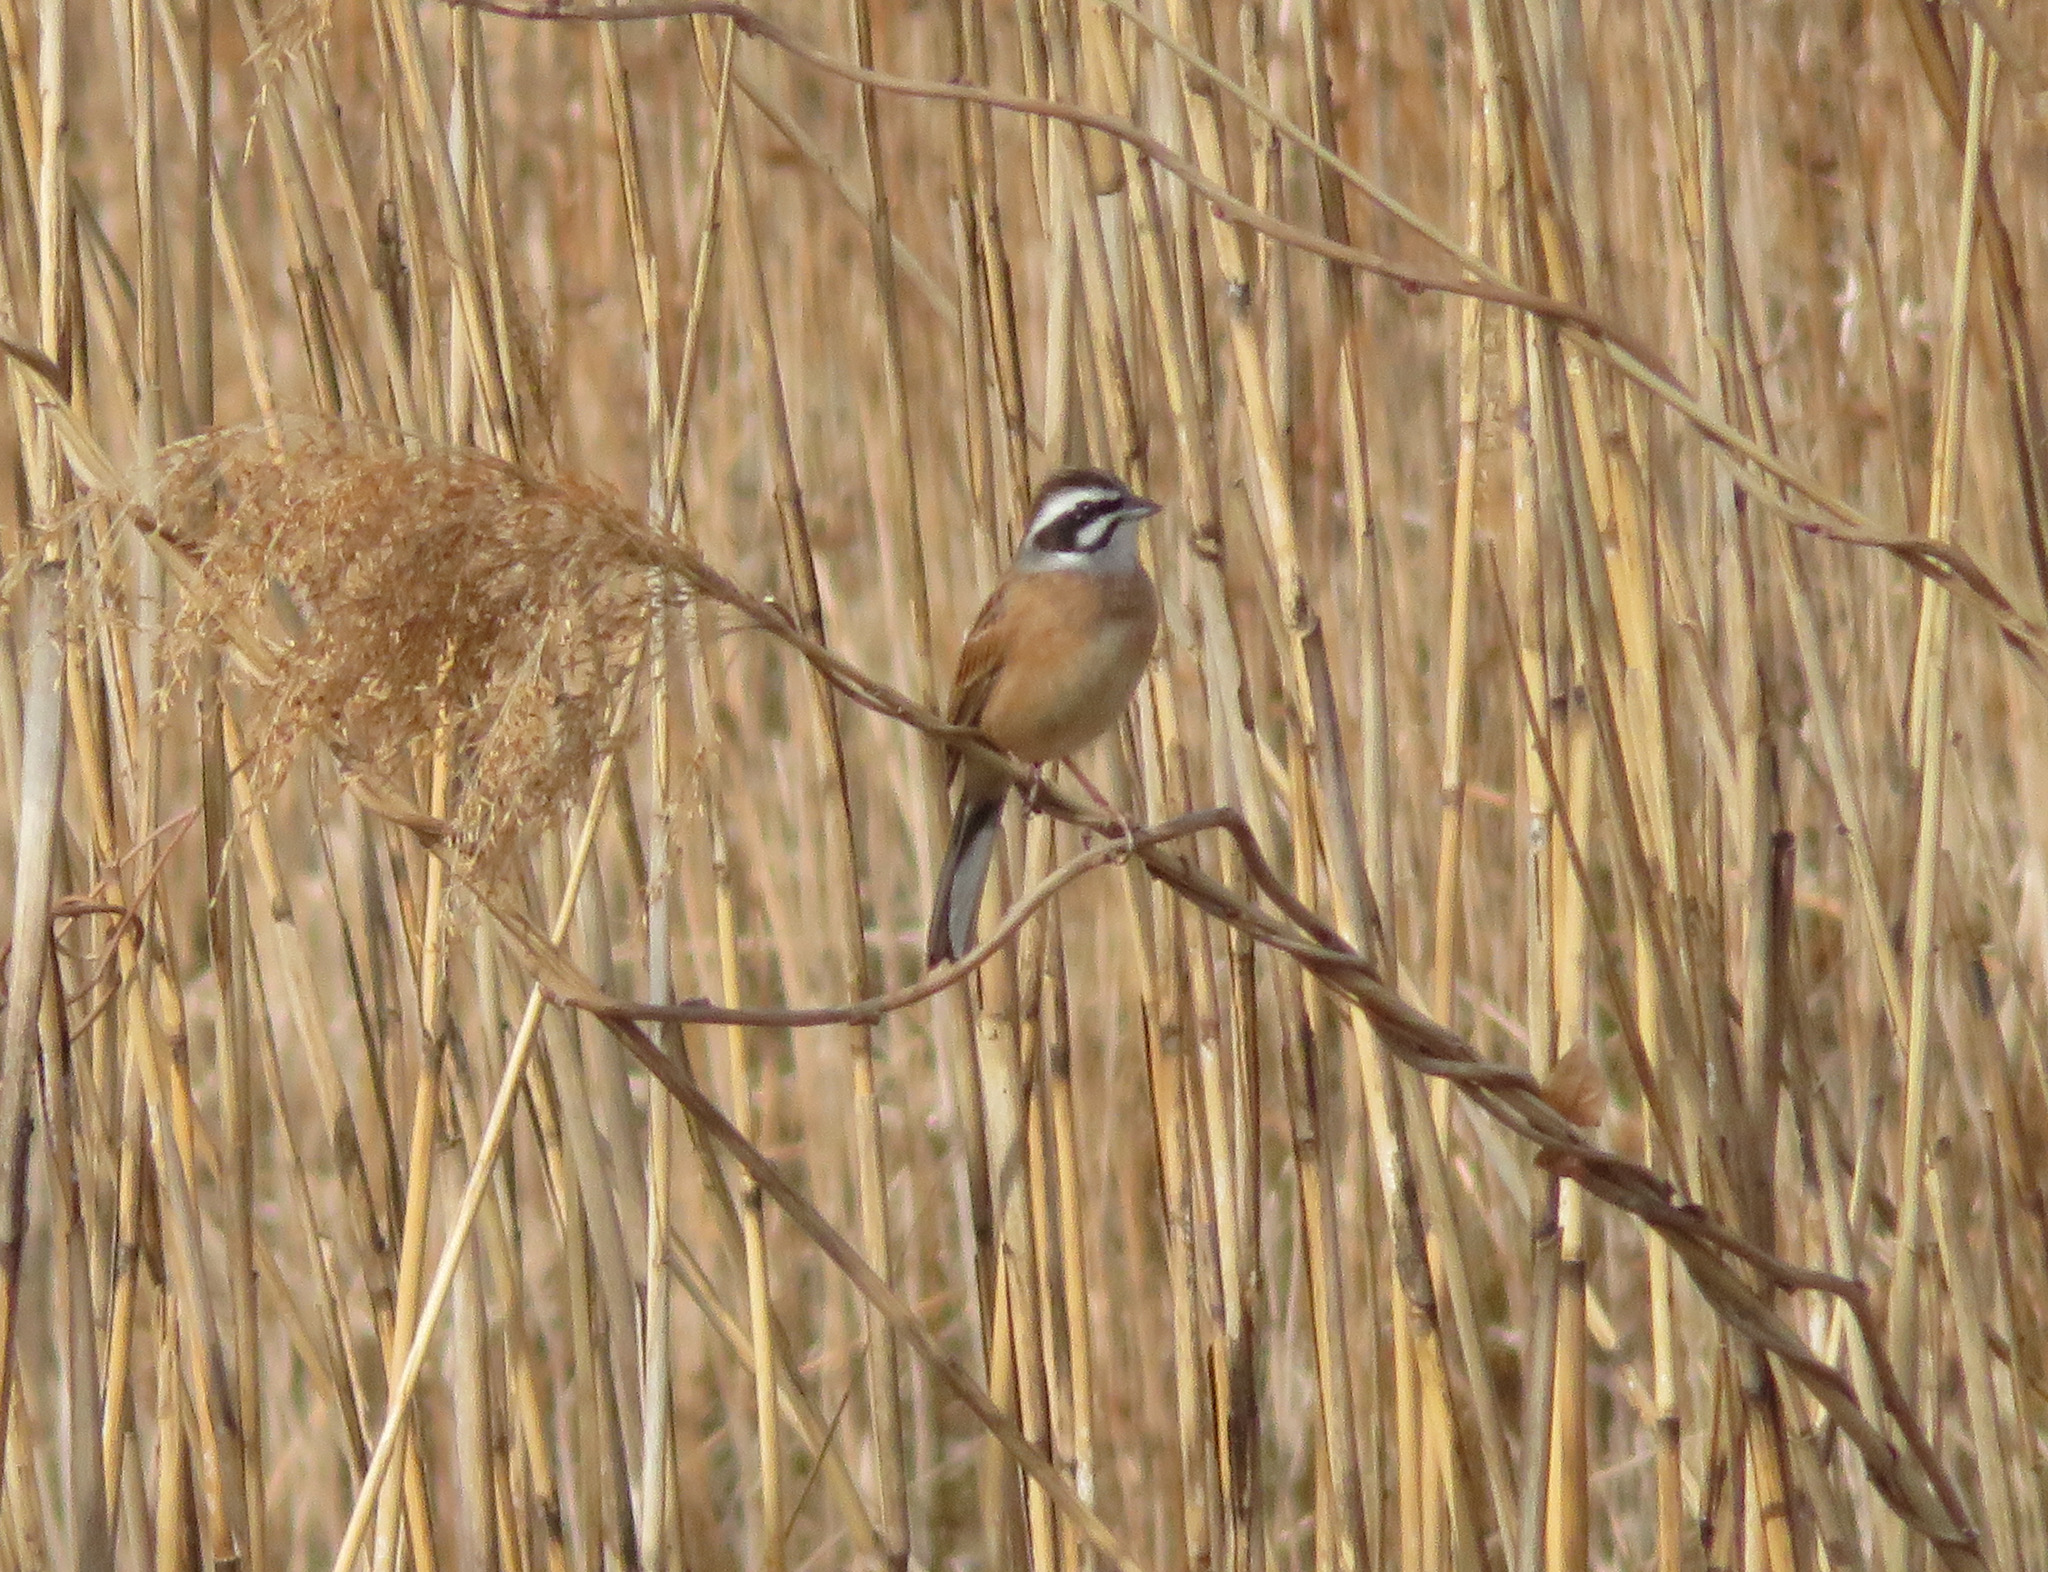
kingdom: Animalia
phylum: Chordata
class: Aves
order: Passeriformes
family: Emberizidae
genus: Emberiza
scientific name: Emberiza cioides
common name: Meadow bunting
